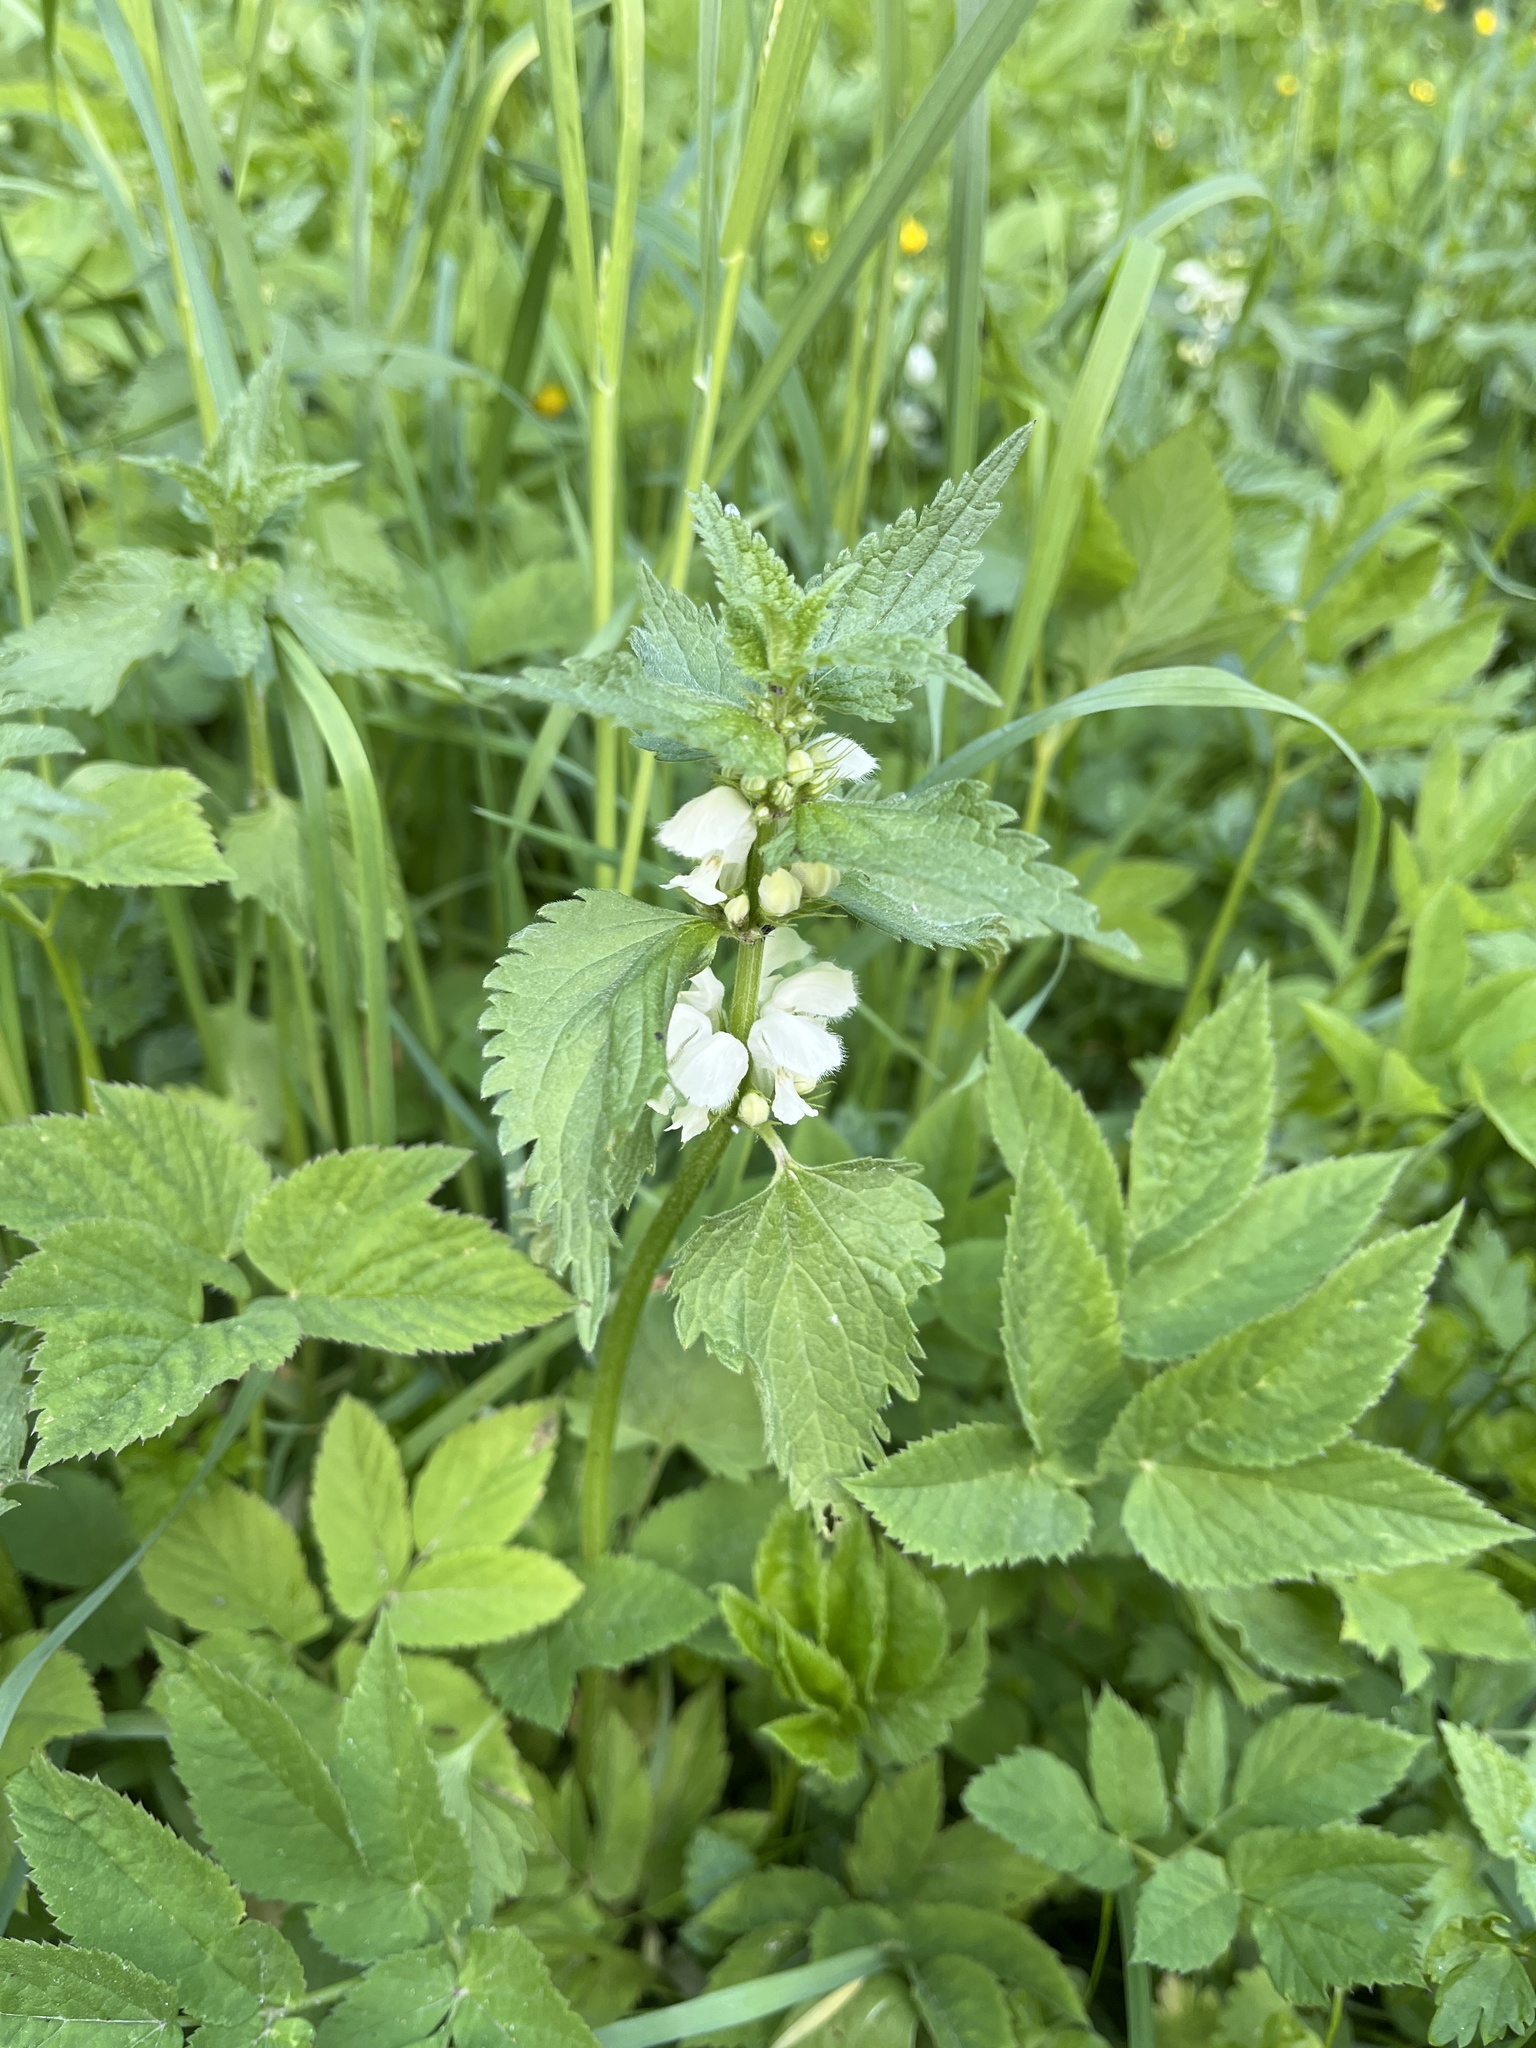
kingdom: Plantae
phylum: Tracheophyta
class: Magnoliopsida
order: Lamiales
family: Lamiaceae
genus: Lamium
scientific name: Lamium album
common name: White dead-nettle
